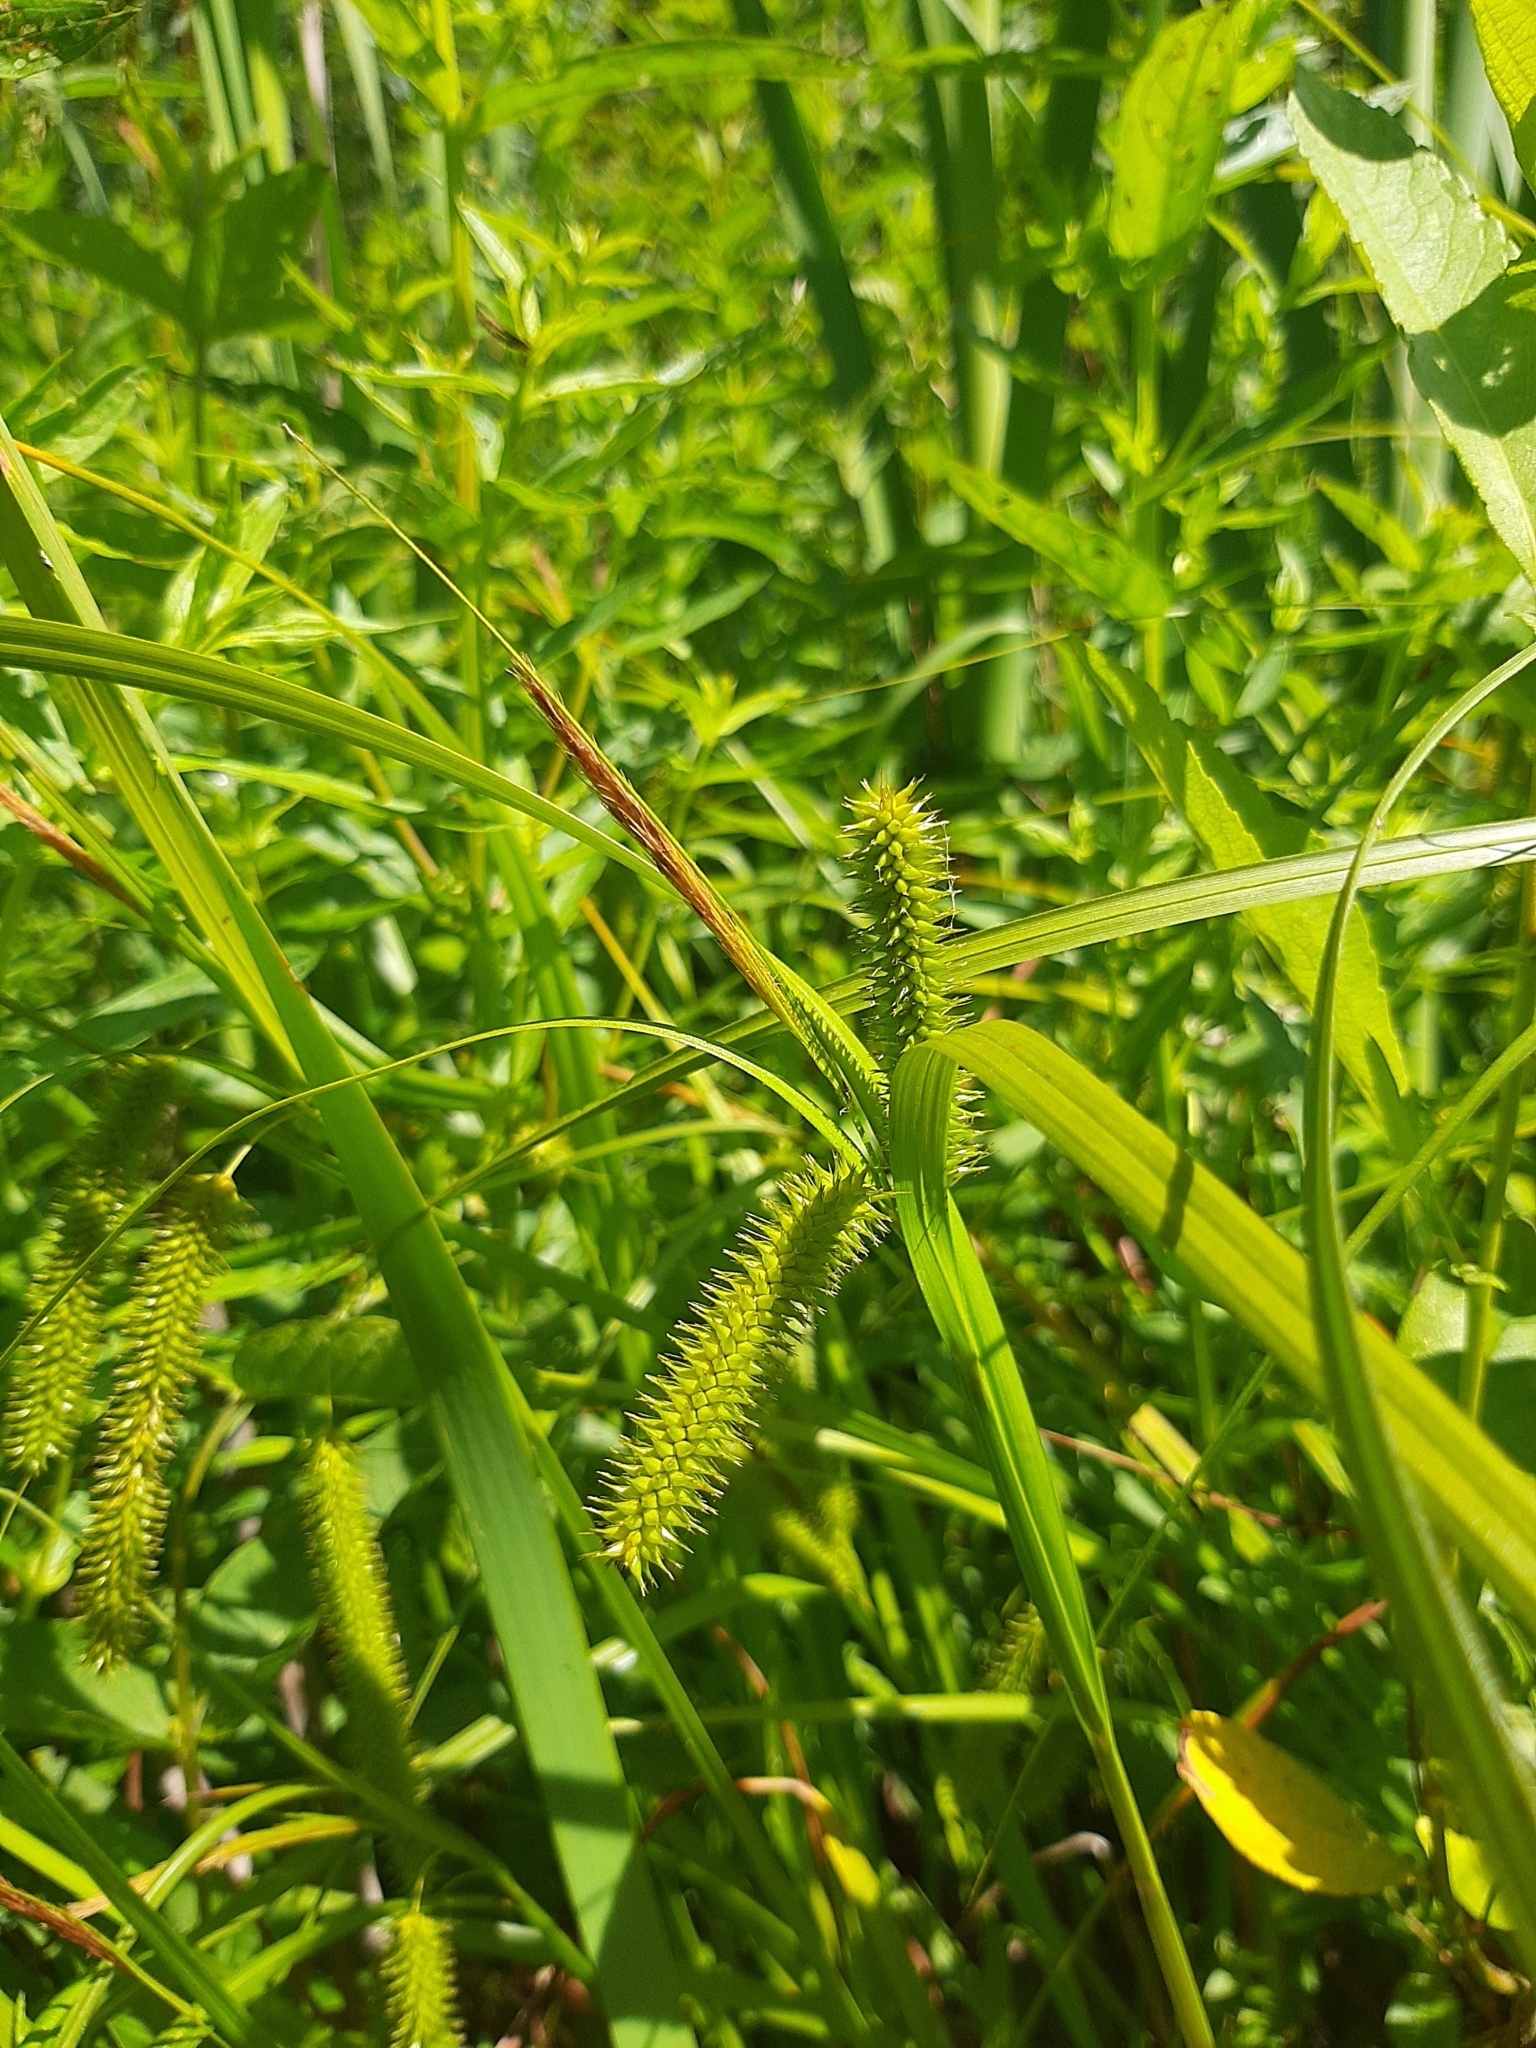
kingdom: Plantae
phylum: Tracheophyta
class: Liliopsida
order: Poales
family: Cyperaceae
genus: Carex
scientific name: Carex pseudocyperus
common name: Cyperus sedge
